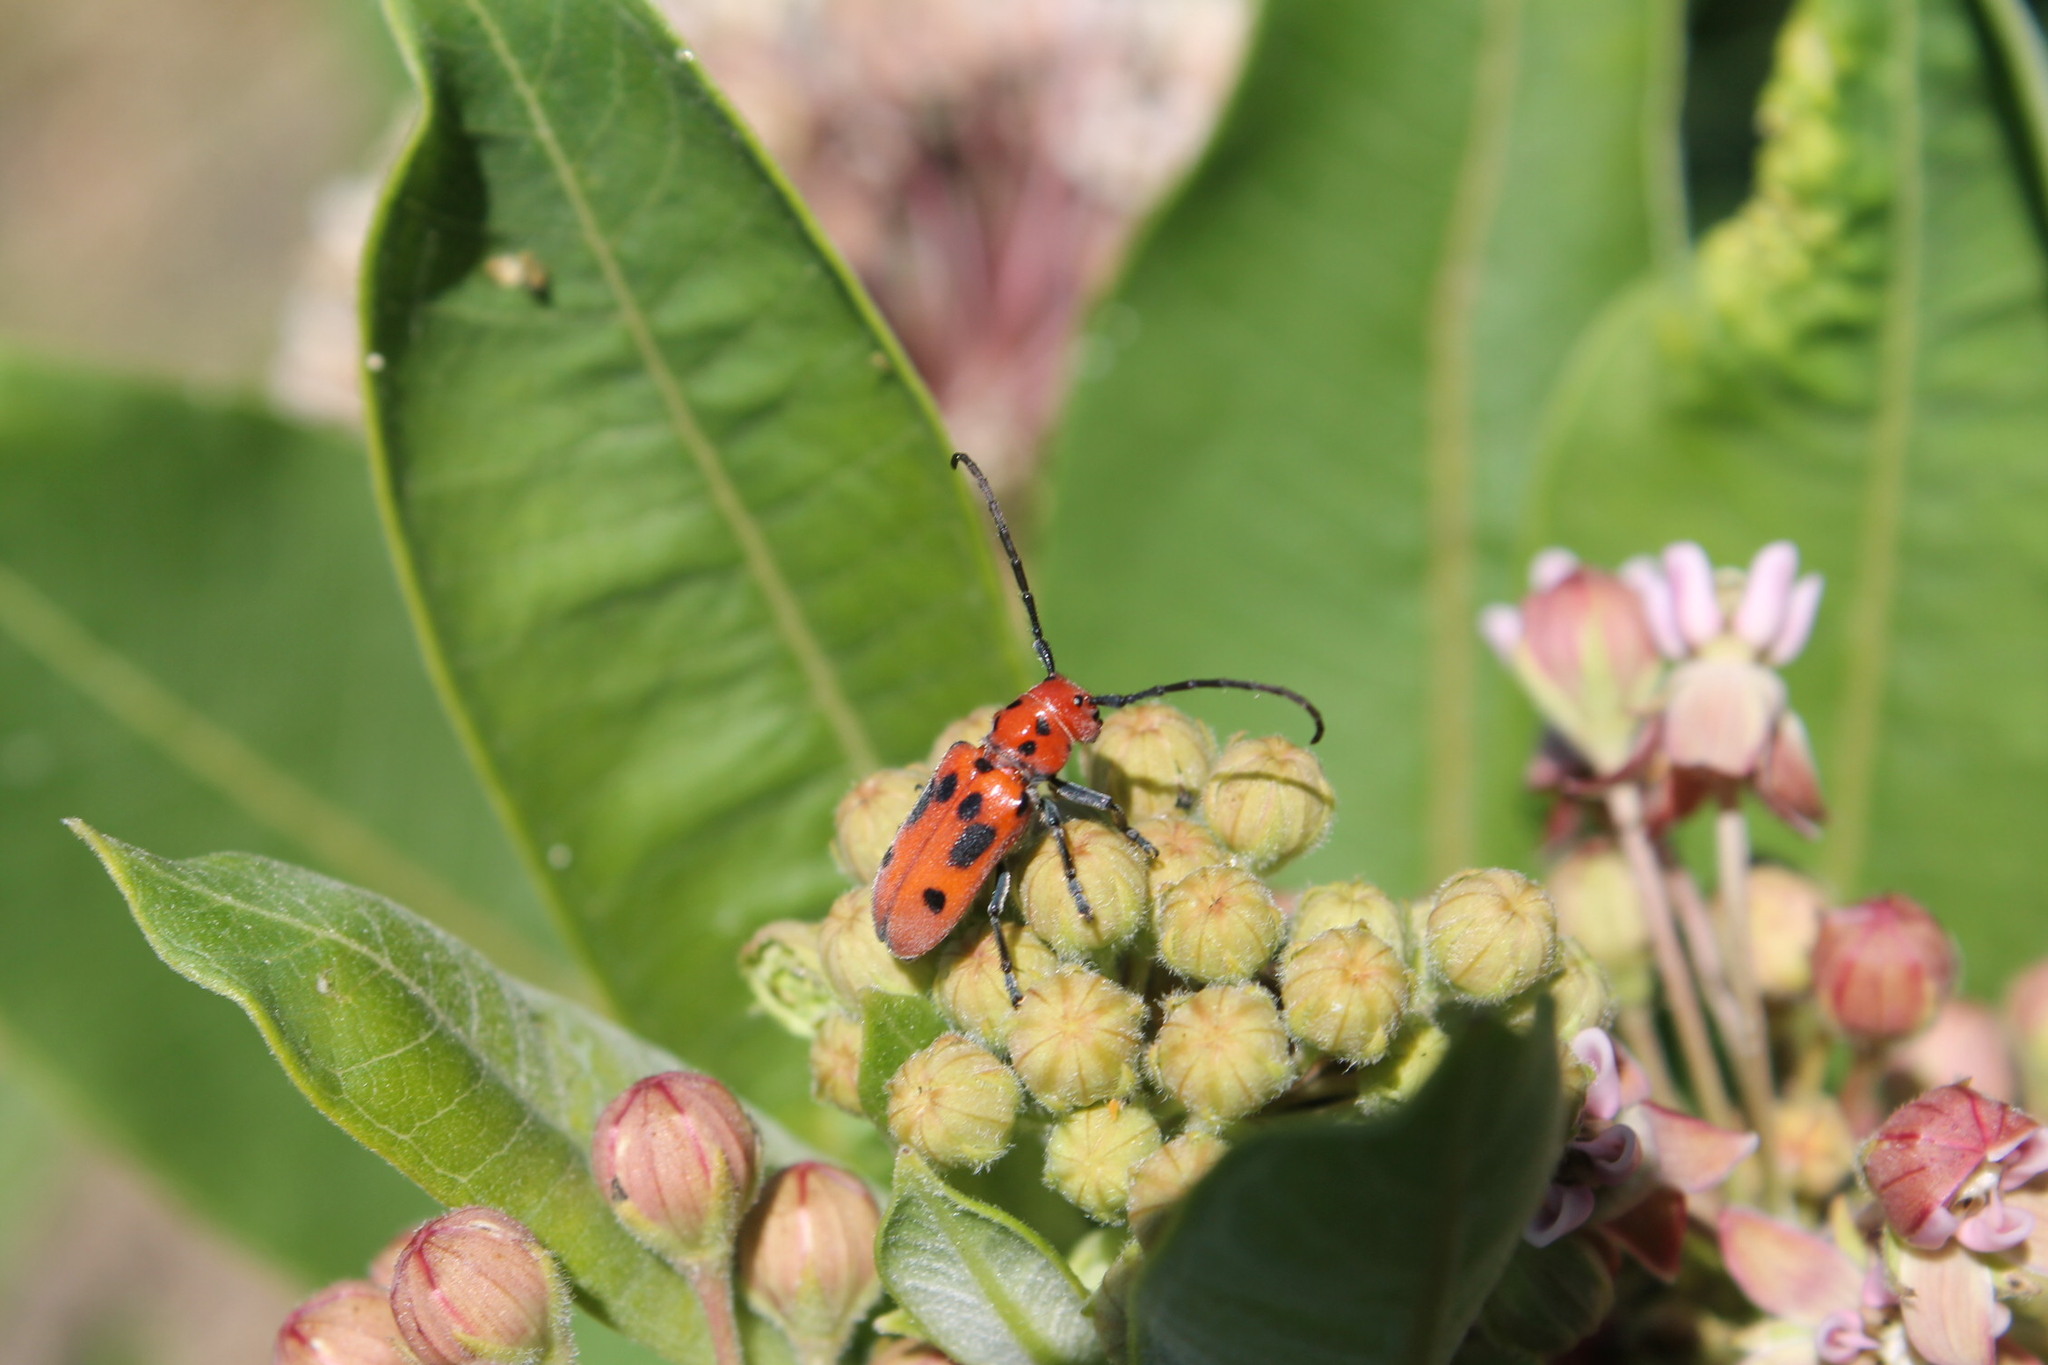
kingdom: Animalia
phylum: Arthropoda
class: Insecta
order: Coleoptera
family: Cerambycidae
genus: Tetraopes
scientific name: Tetraopes tetrophthalmus
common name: Red milkweed beetle
